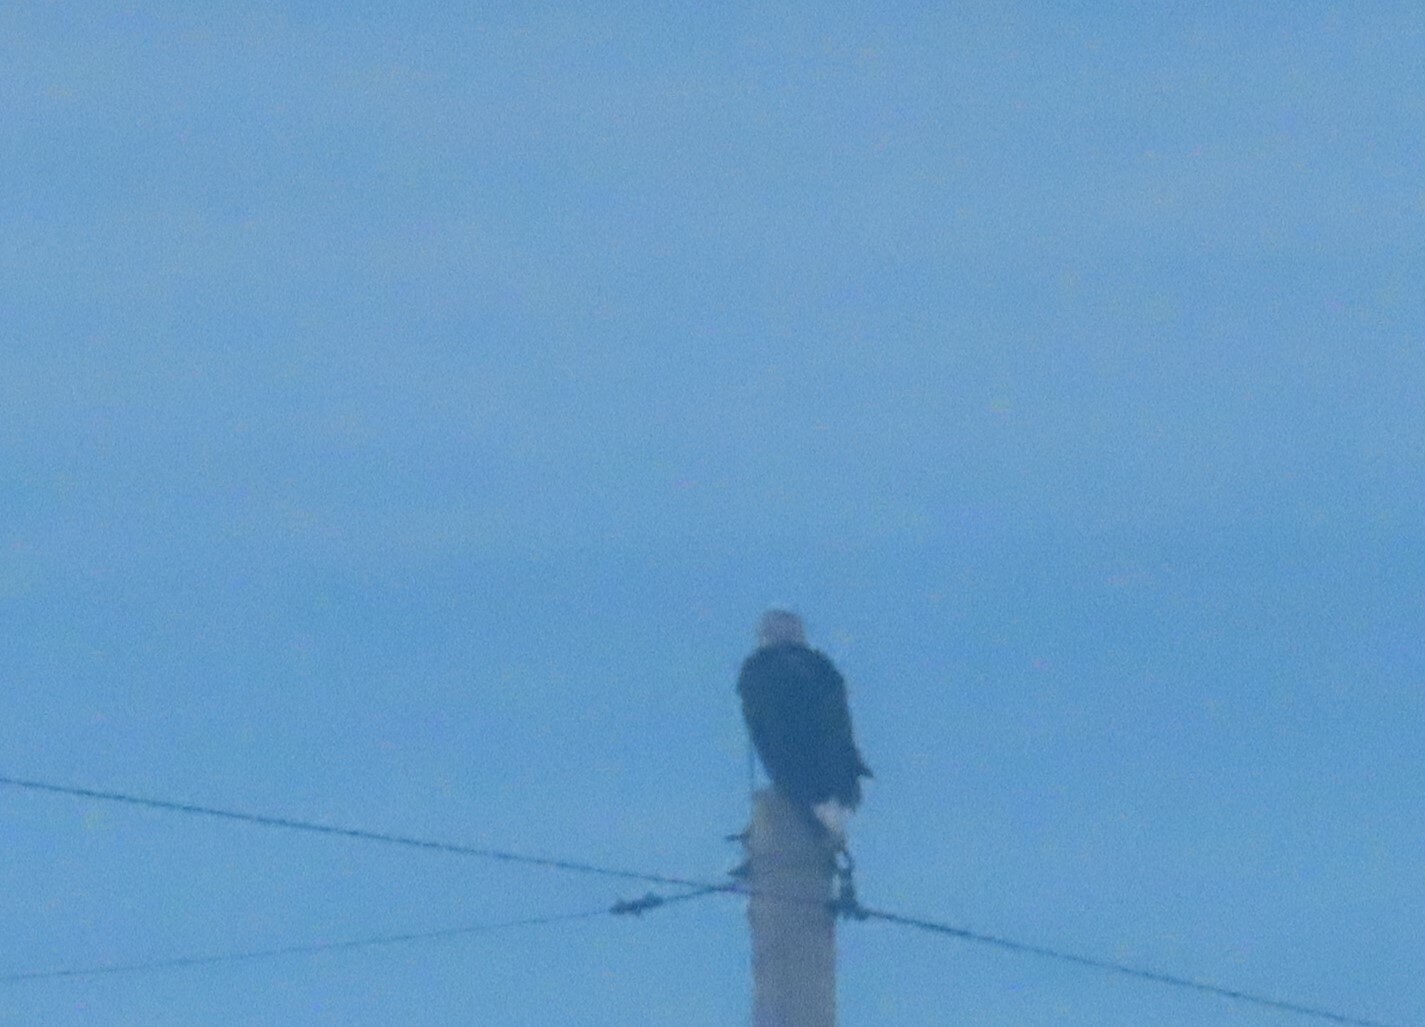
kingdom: Animalia
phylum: Chordata
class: Aves
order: Accipitriformes
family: Accipitridae
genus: Haliaeetus
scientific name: Haliaeetus leucocephalus
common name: Bald eagle
